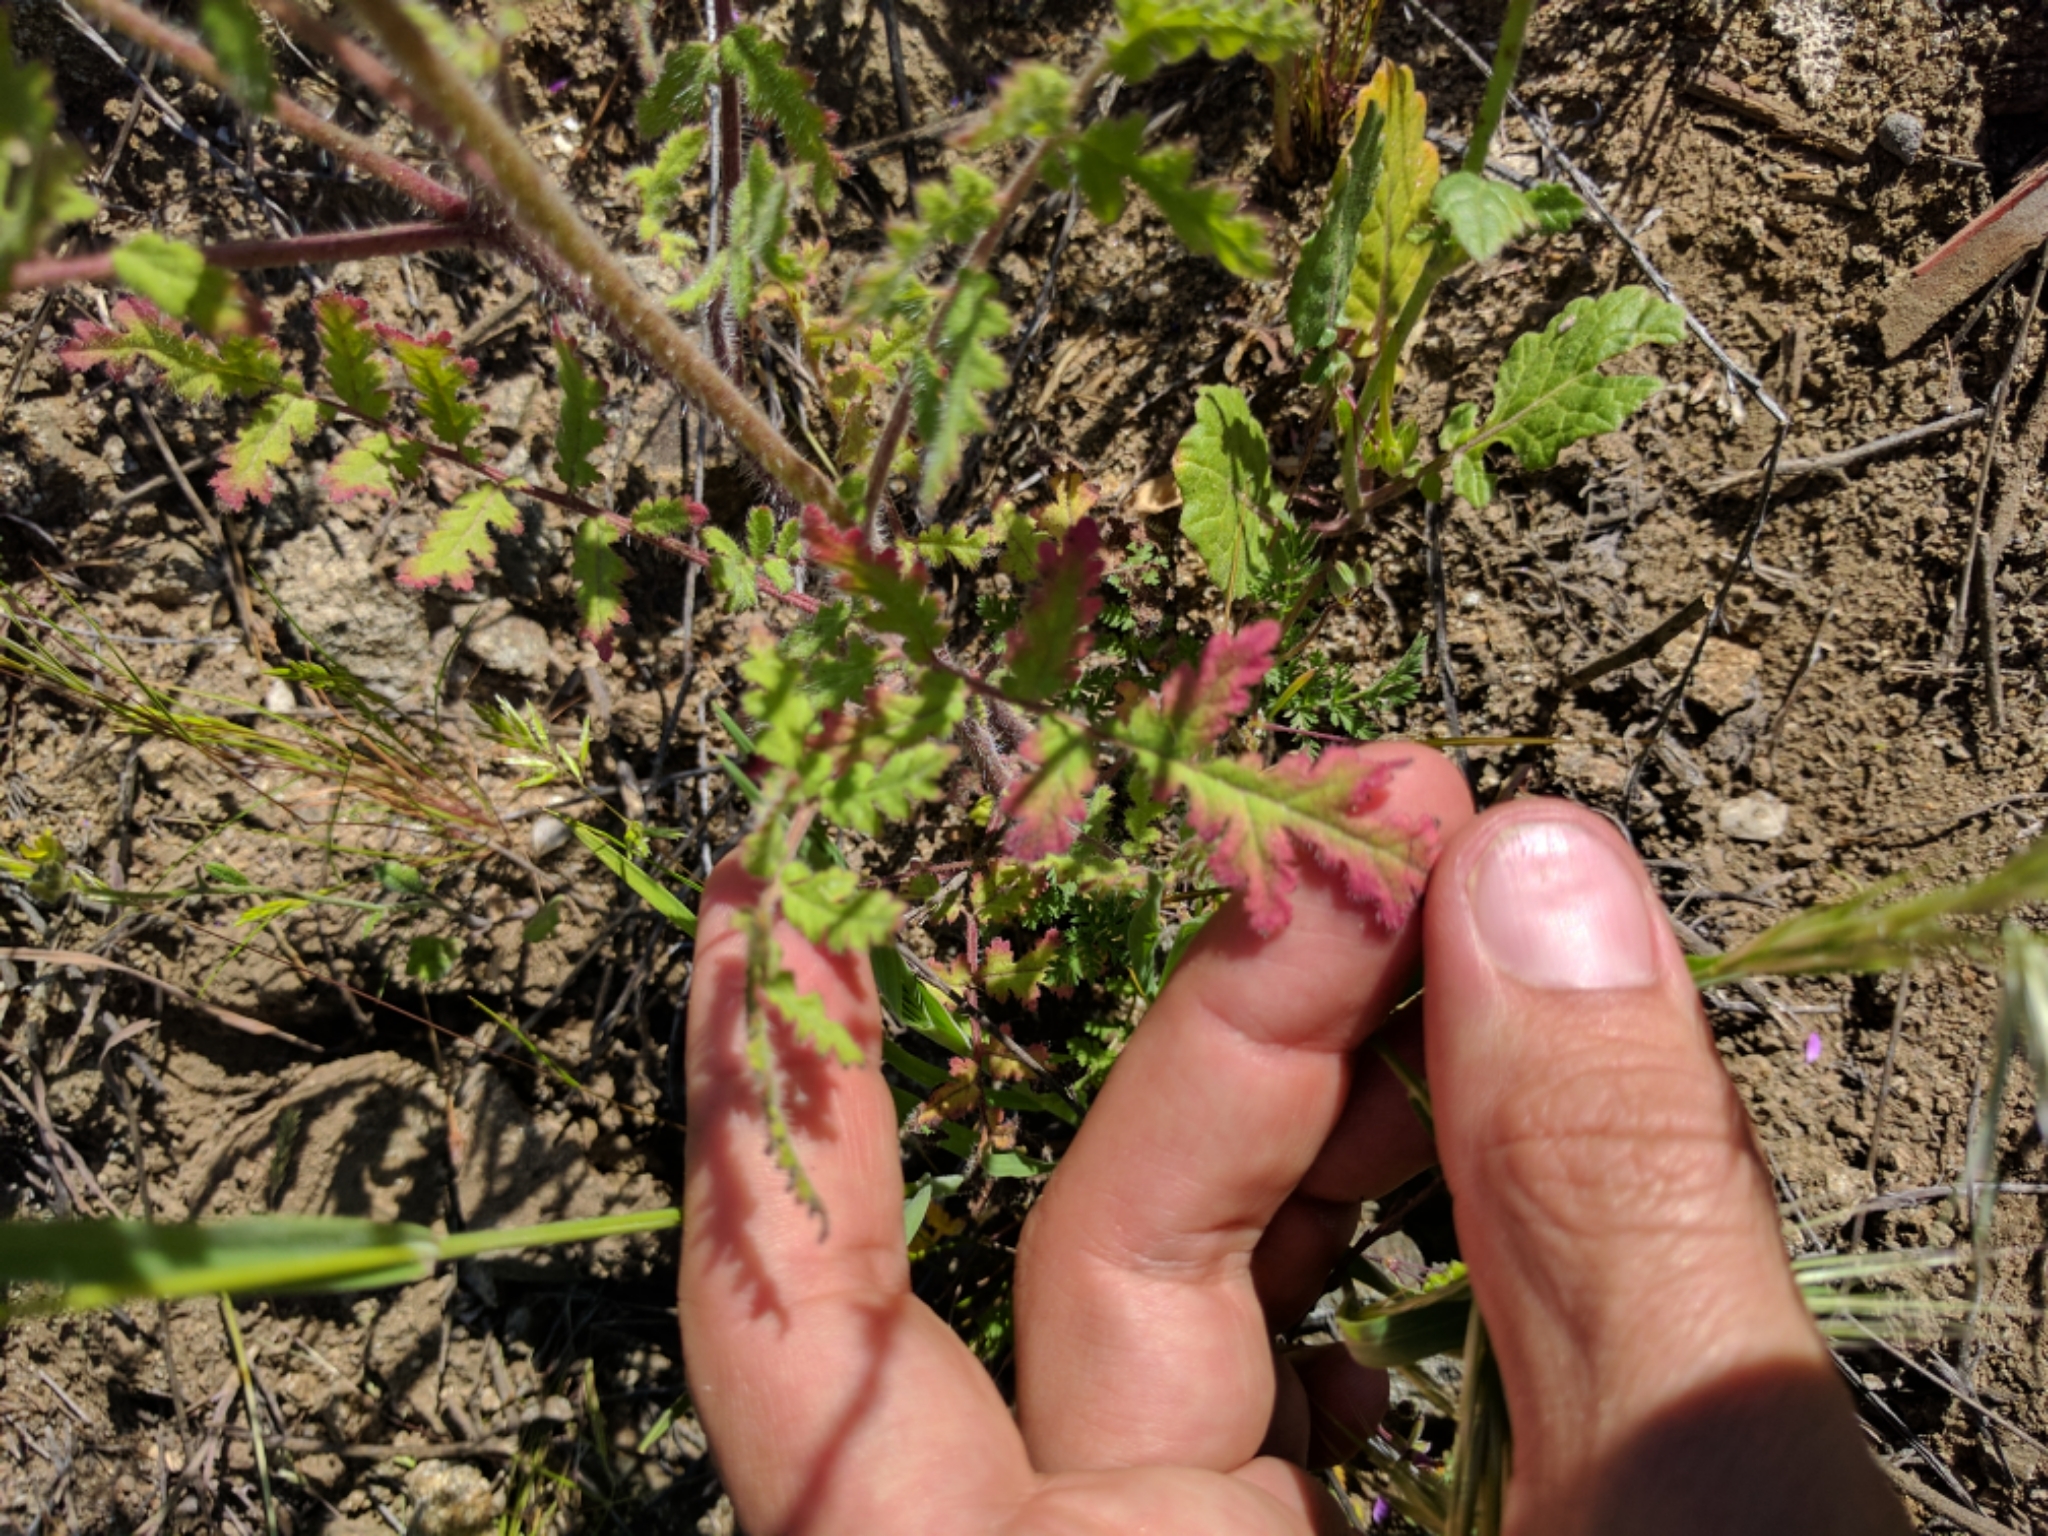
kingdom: Plantae
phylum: Tracheophyta
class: Magnoliopsida
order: Boraginales
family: Hydrophyllaceae
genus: Phacelia
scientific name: Phacelia cicutaria
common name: Caterpillar phacelia
